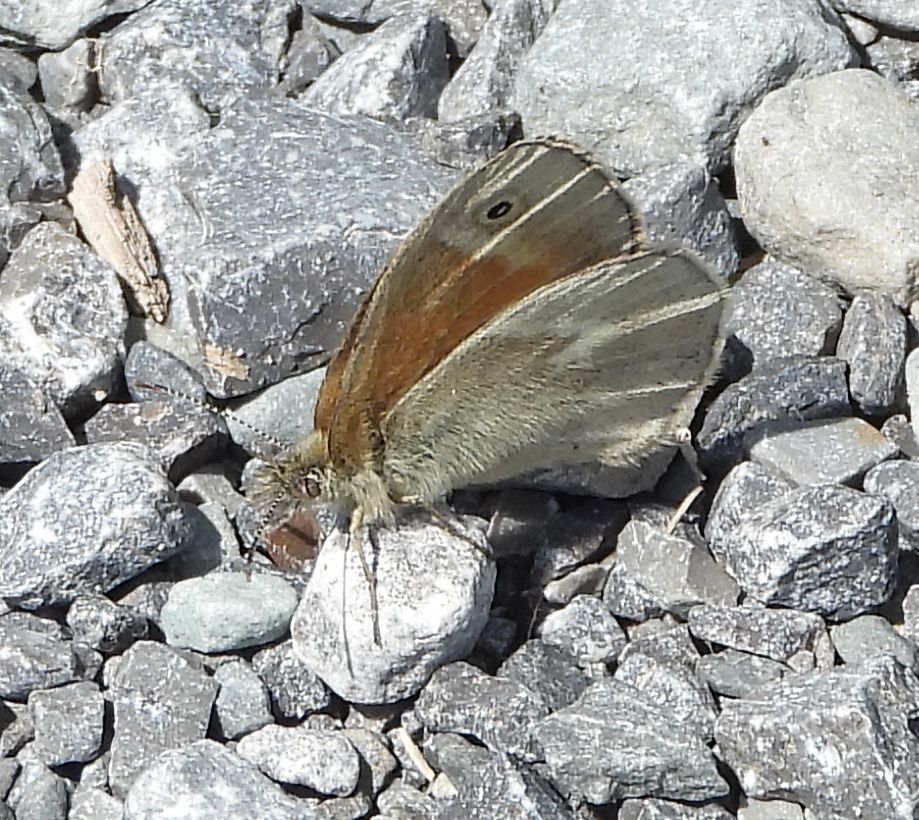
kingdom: Animalia
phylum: Arthropoda
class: Insecta
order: Lepidoptera
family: Nymphalidae
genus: Coenonympha
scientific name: Coenonympha california
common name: Common ringlet
